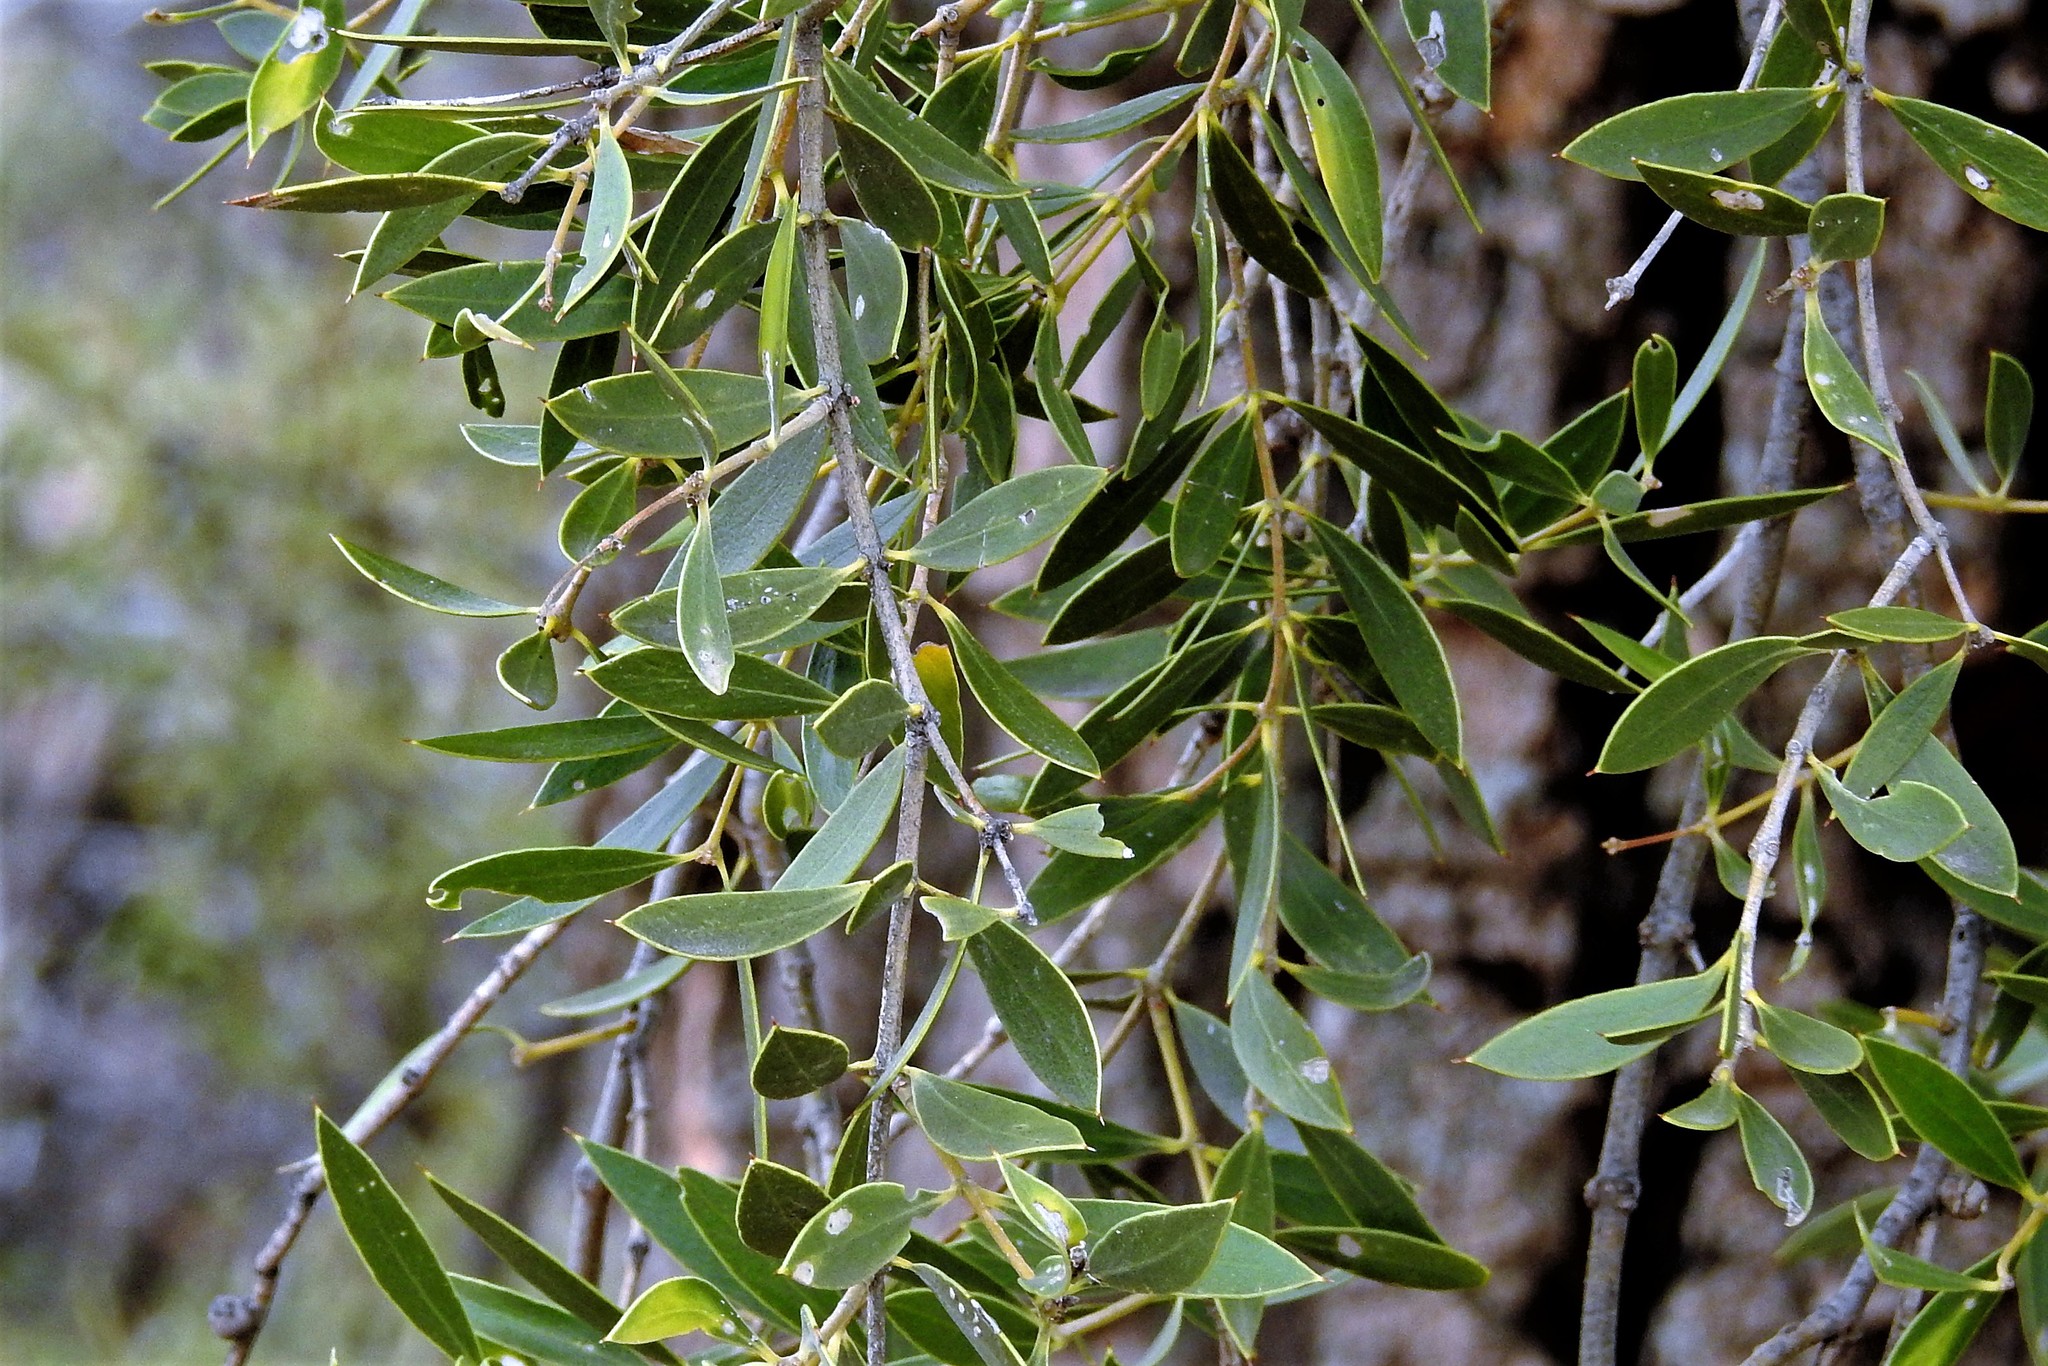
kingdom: Plantae
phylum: Tracheophyta
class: Magnoliopsida
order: Gentianales
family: Apocynaceae
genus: Aspidosperma
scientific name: Aspidosperma quebracho-blanco
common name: White quebracho
